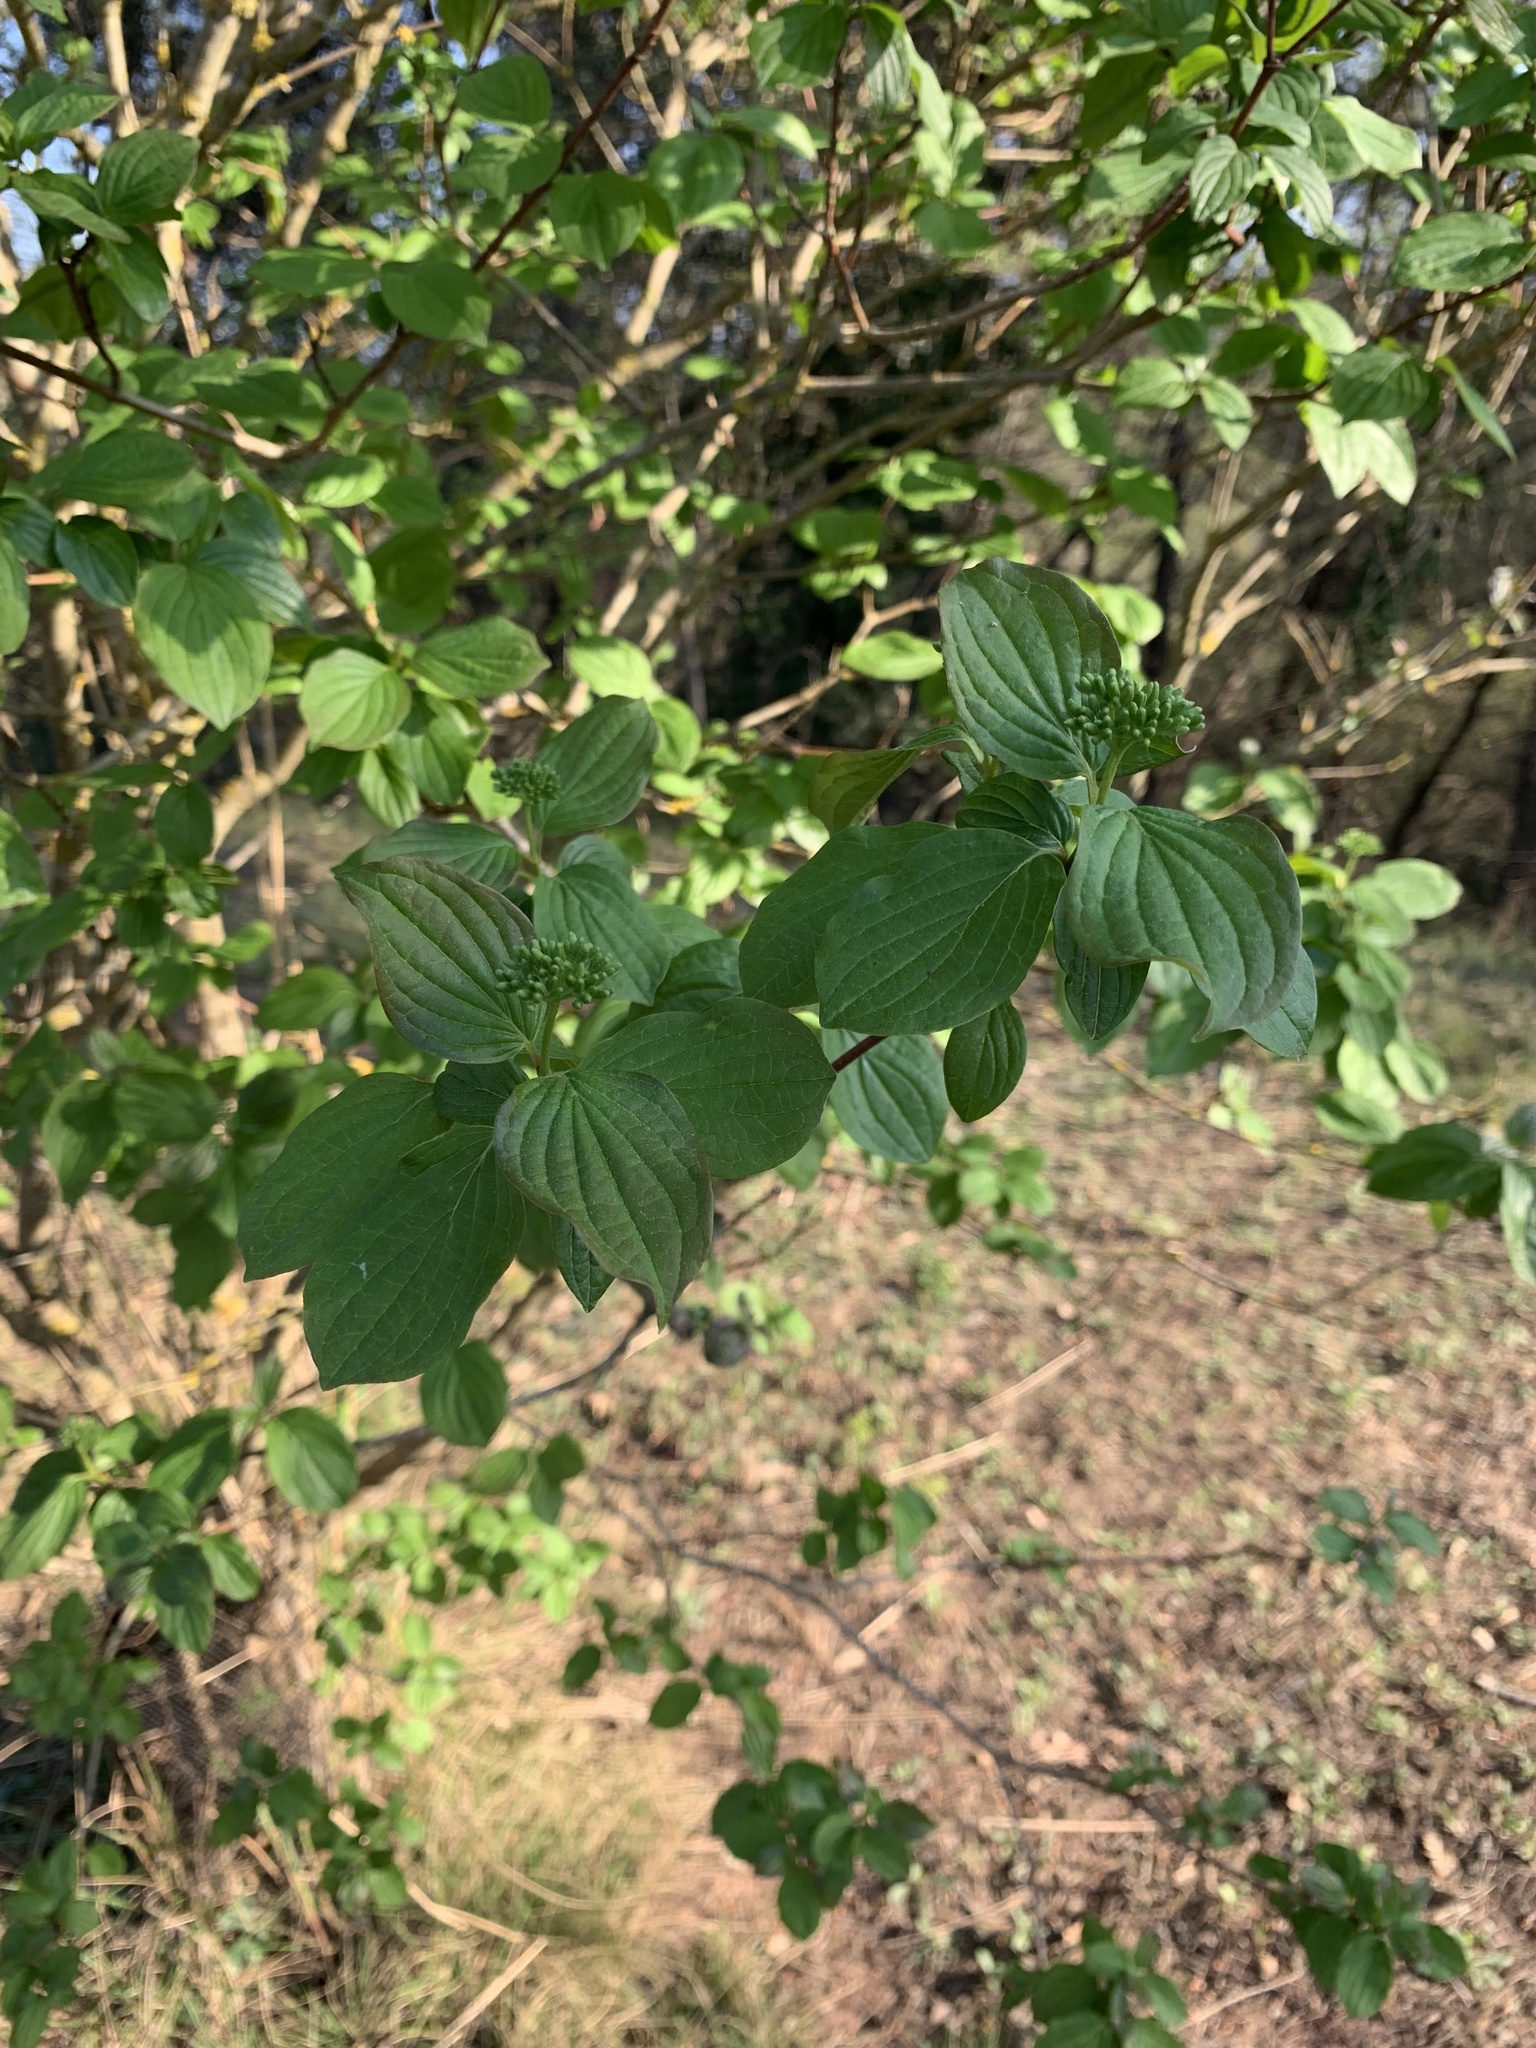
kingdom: Plantae
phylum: Tracheophyta
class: Magnoliopsida
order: Cornales
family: Cornaceae
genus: Cornus
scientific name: Cornus sanguinea
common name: Dogwood
